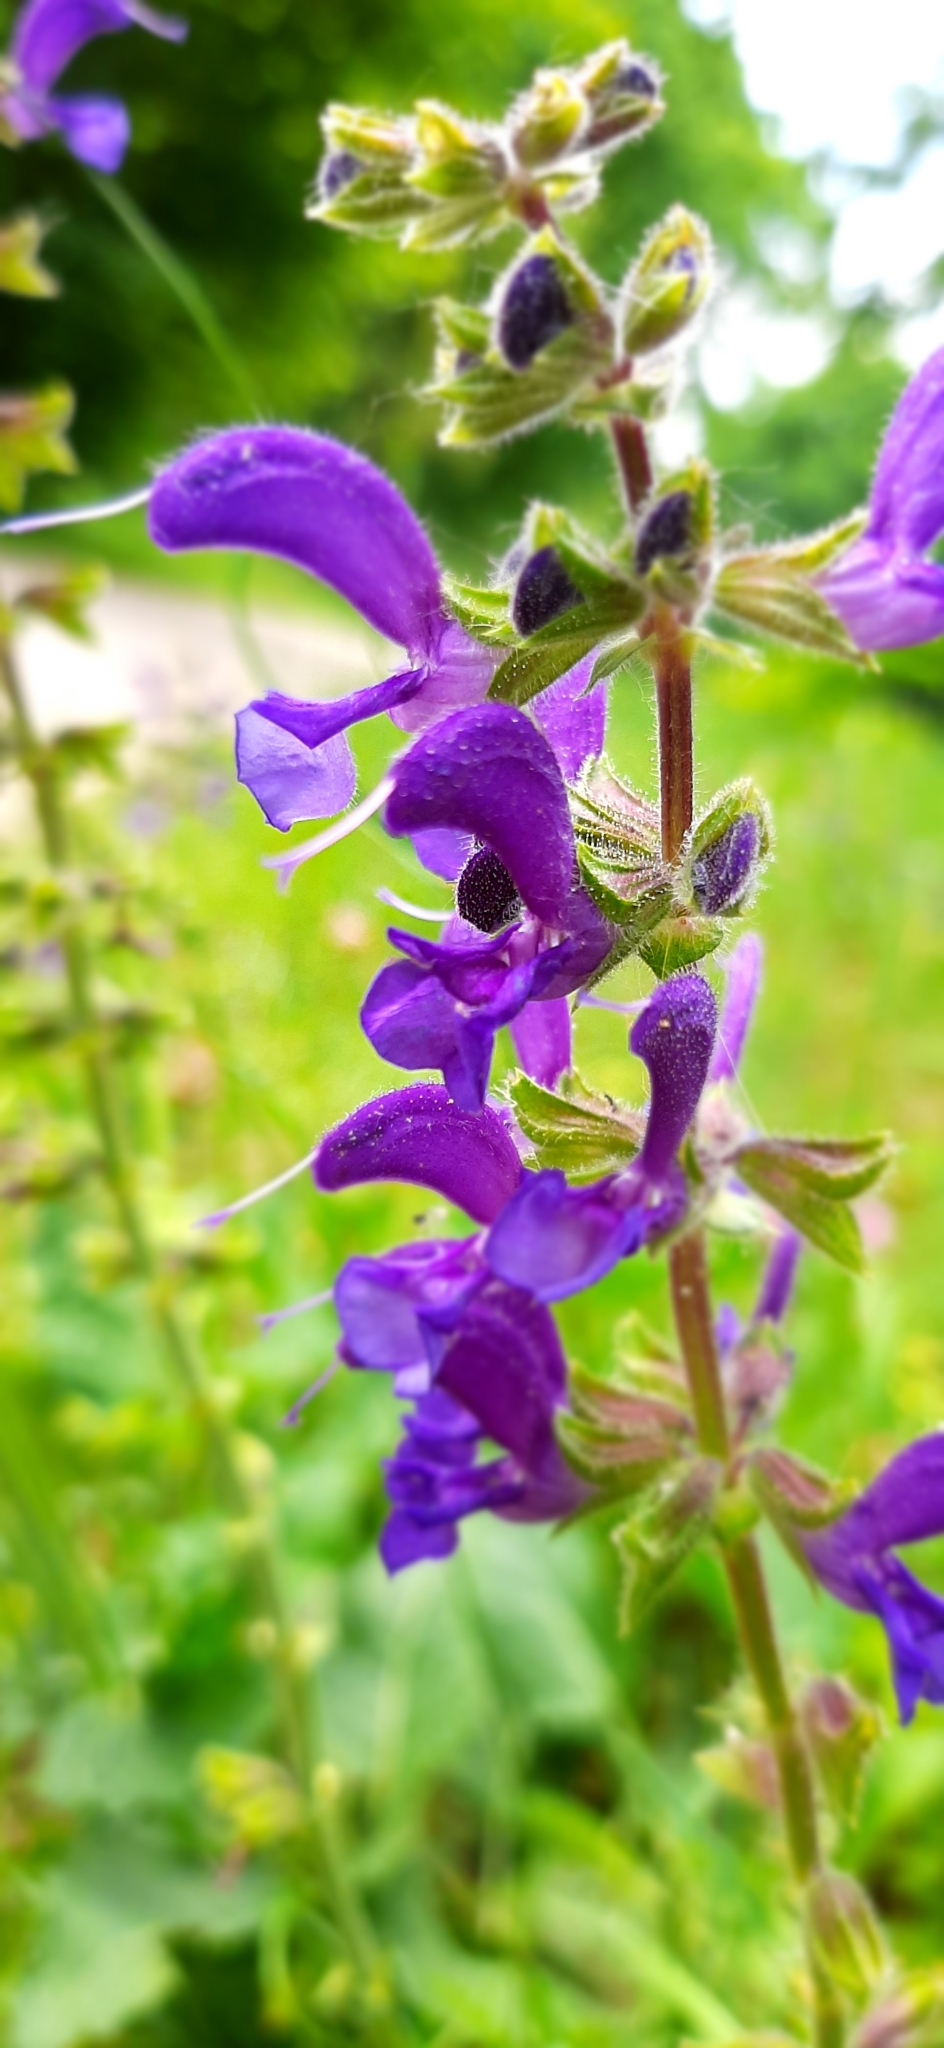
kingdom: Plantae
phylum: Tracheophyta
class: Magnoliopsida
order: Lamiales
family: Lamiaceae
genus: Salvia
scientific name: Salvia pratensis
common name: Meadow sage
